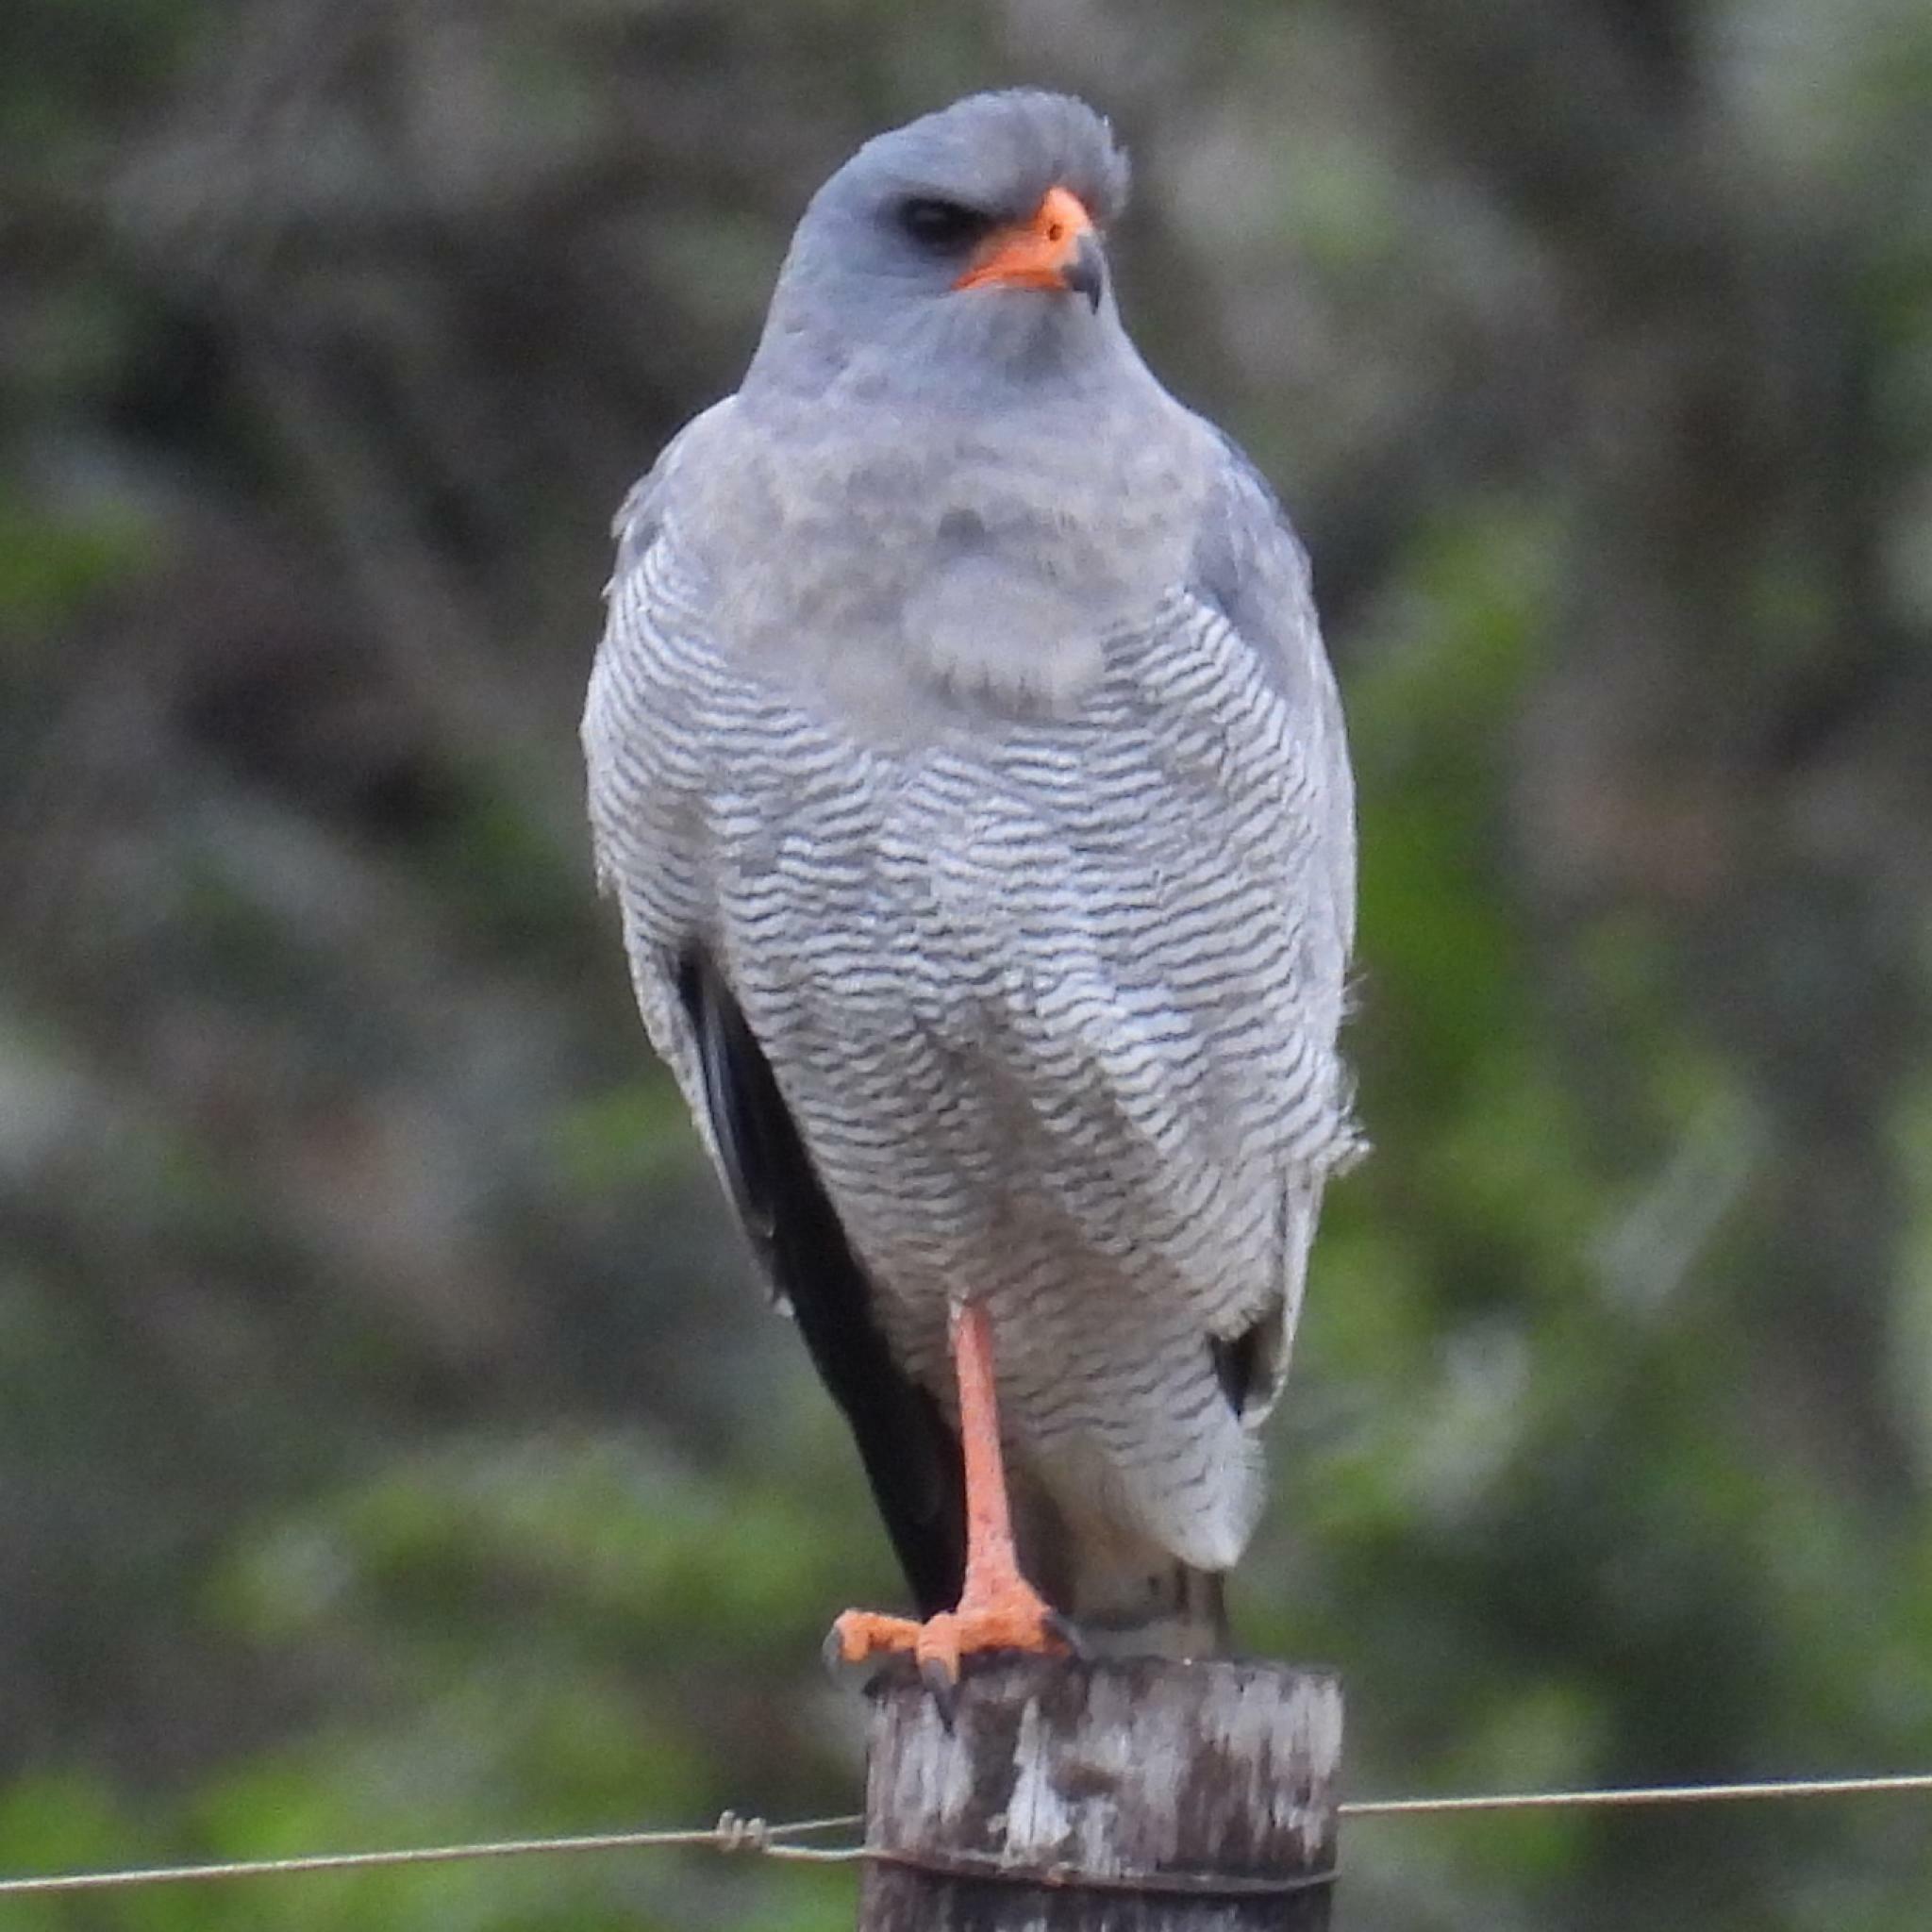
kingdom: Animalia
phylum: Chordata
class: Aves
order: Accipitriformes
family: Accipitridae
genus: Melierax
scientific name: Melierax canorus
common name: Pale chanting-goshawk
